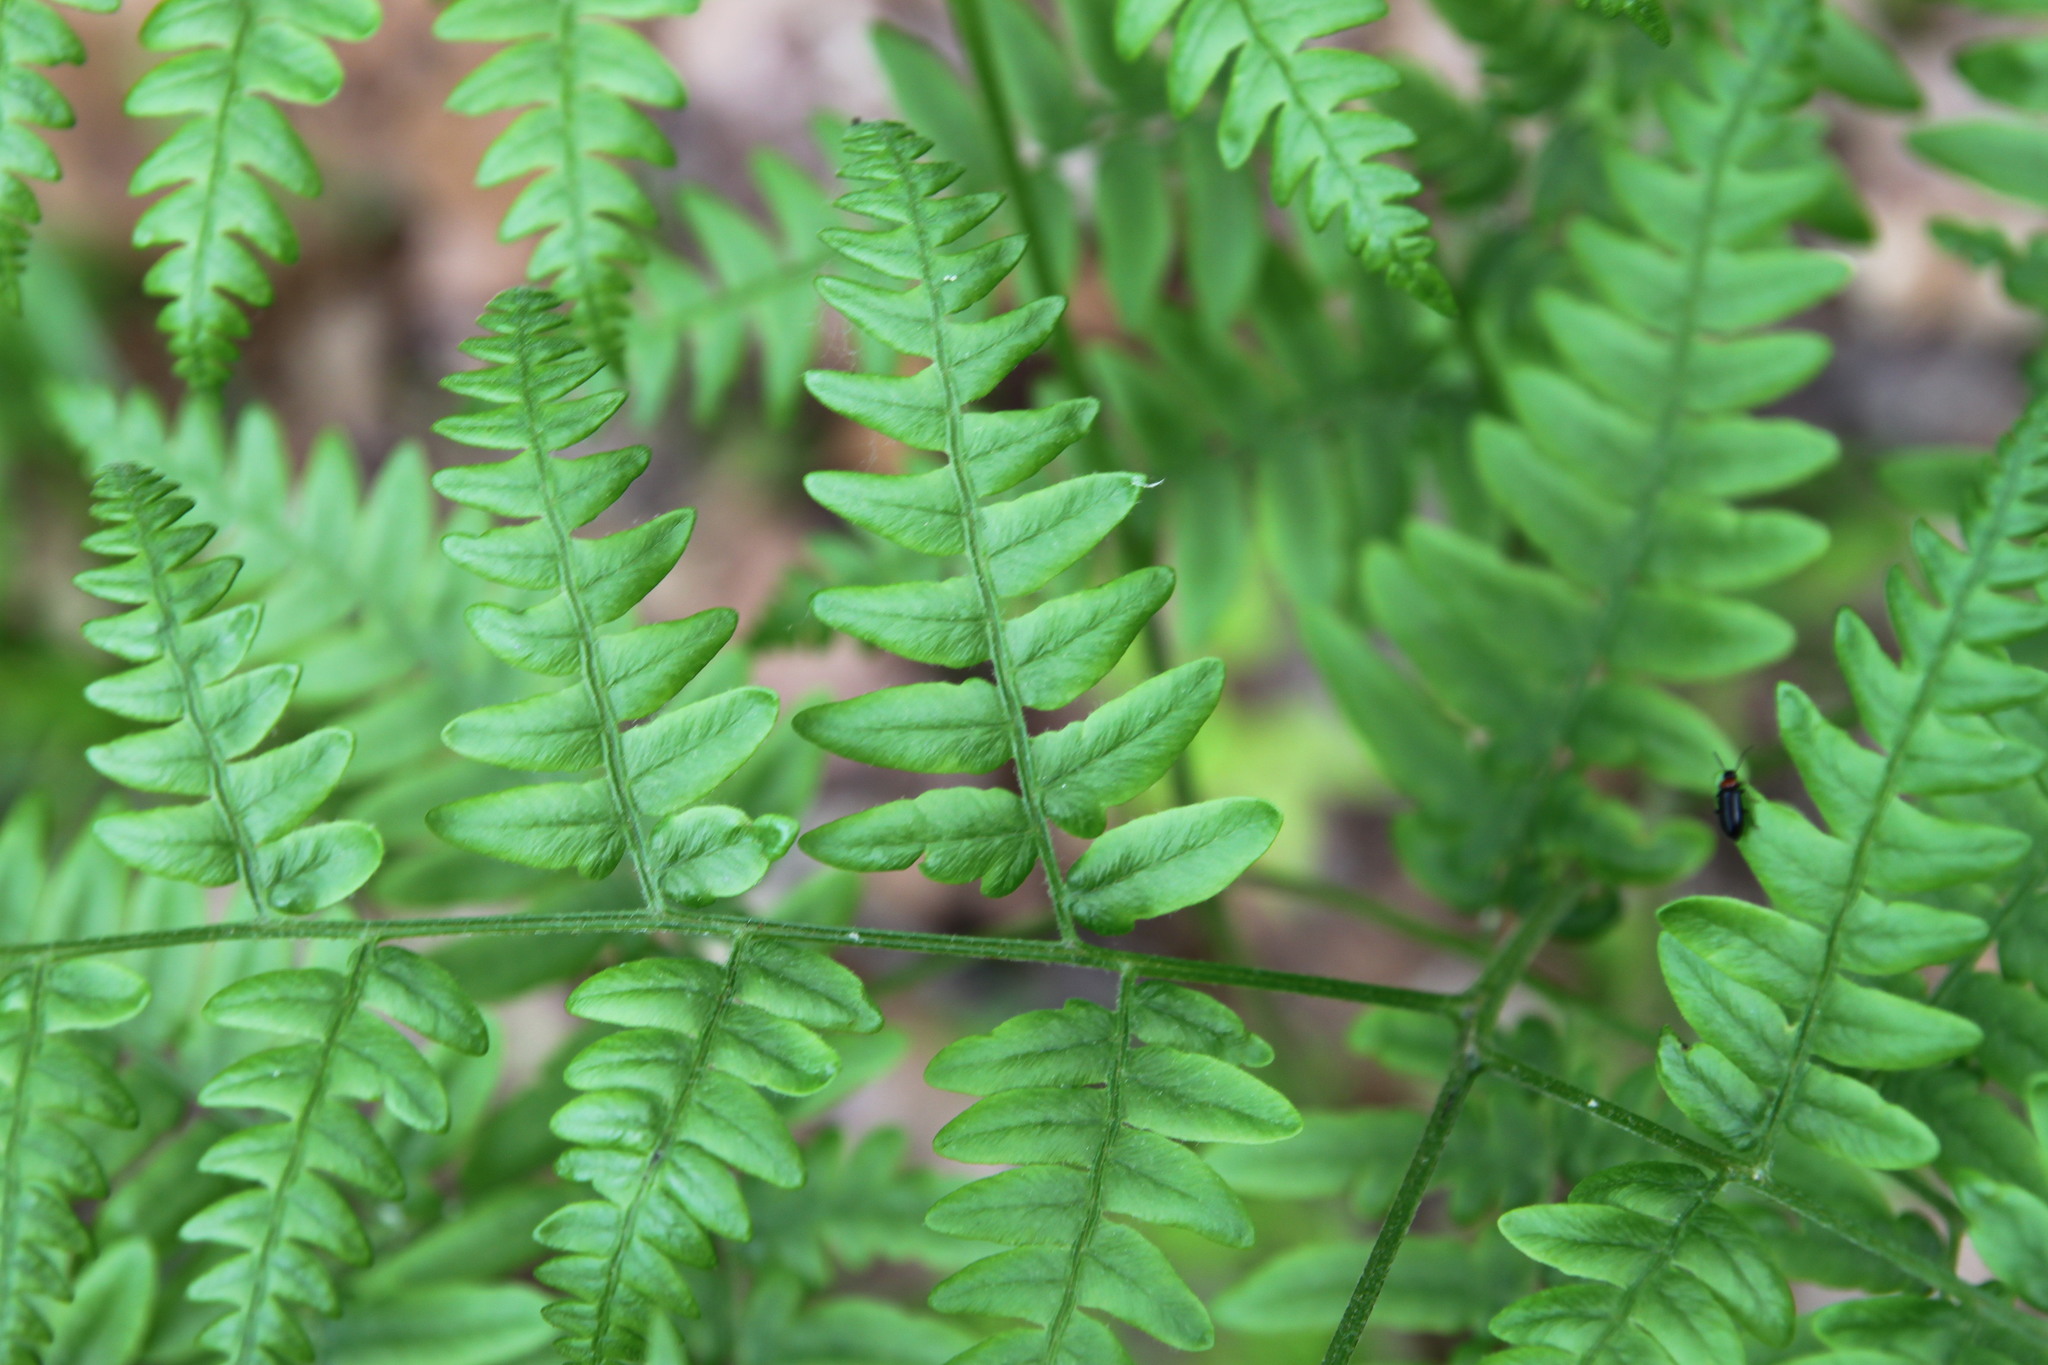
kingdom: Plantae
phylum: Tracheophyta
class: Polypodiopsida
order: Polypodiales
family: Dennstaedtiaceae
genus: Pteridium
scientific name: Pteridium aquilinum
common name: Bracken
